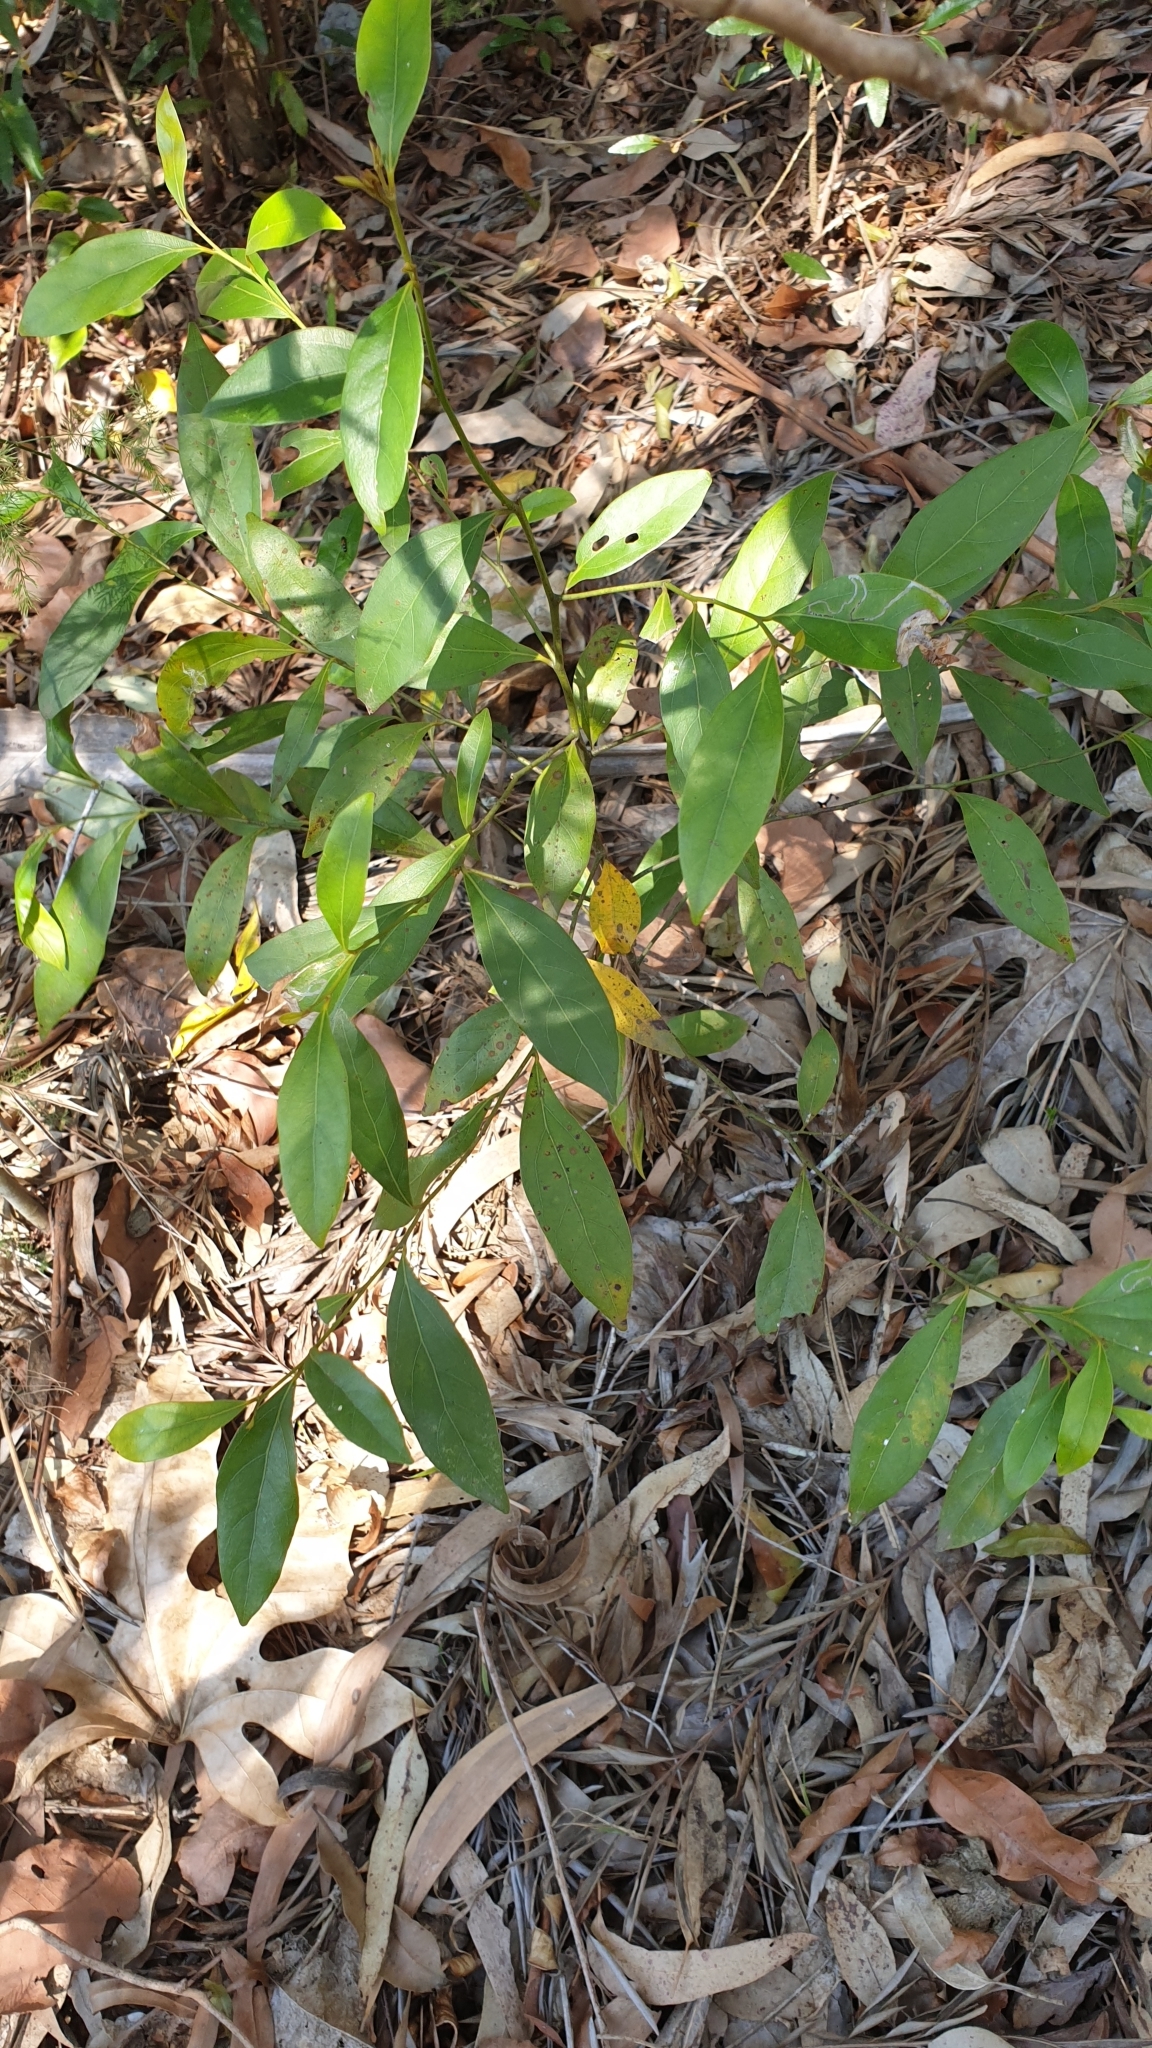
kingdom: Plantae
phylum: Tracheophyta
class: Magnoliopsida
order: Laurales
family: Lauraceae
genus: Cryptocarya
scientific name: Cryptocarya triplinervis
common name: Three-vein cryptocarya
